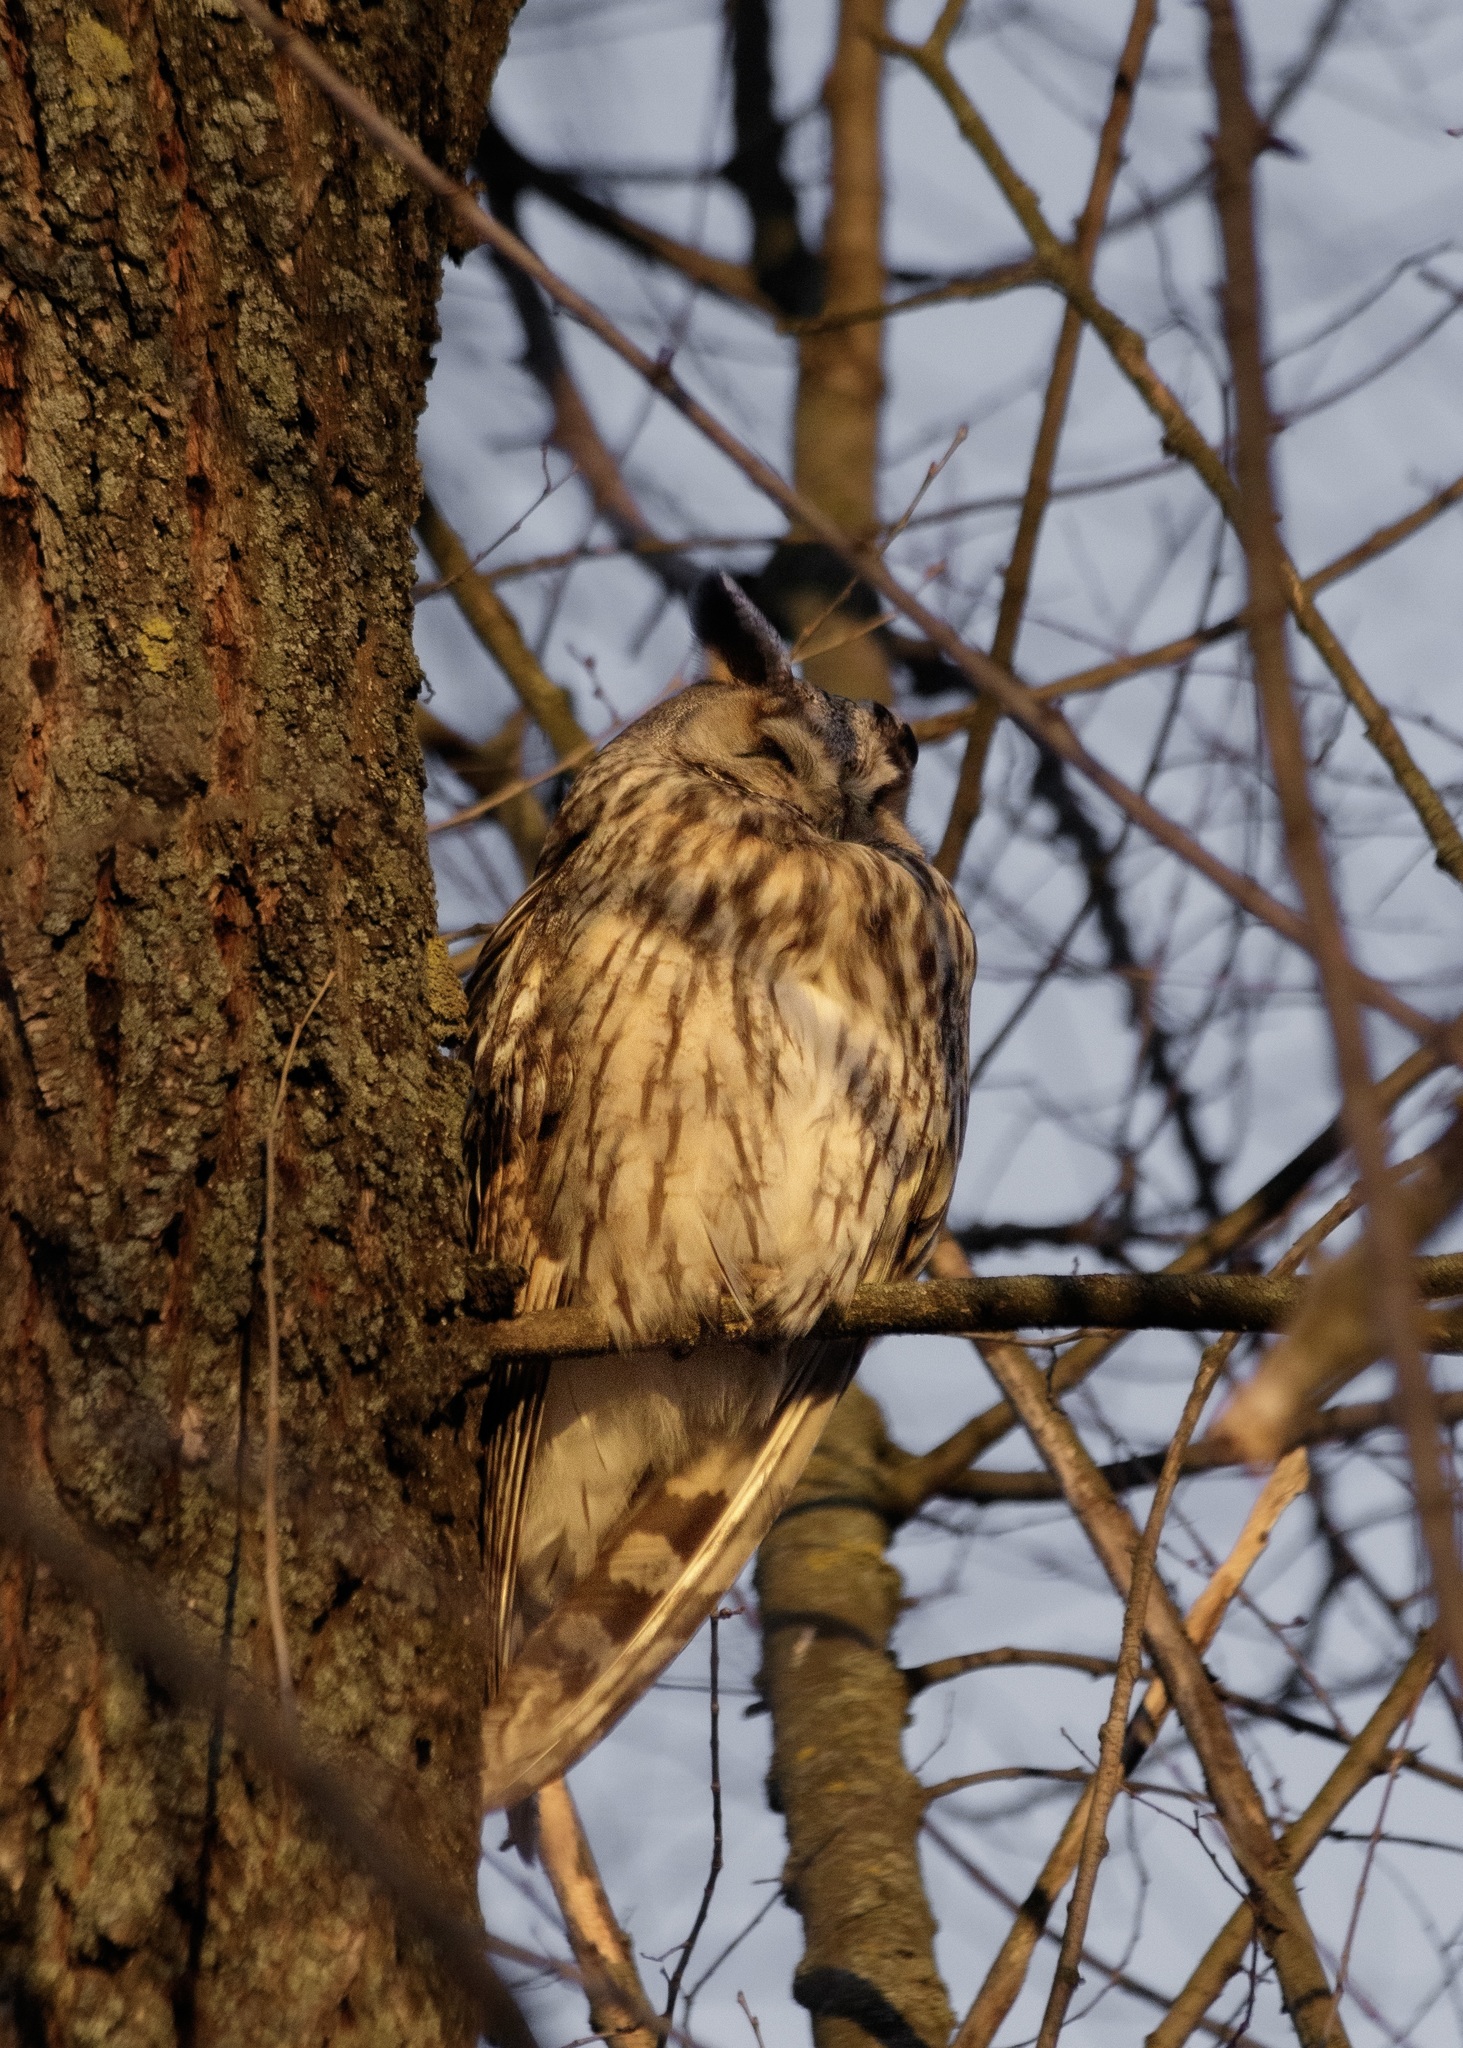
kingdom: Animalia
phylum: Chordata
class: Aves
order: Strigiformes
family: Strigidae
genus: Asio
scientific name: Asio otus
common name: Long-eared owl
